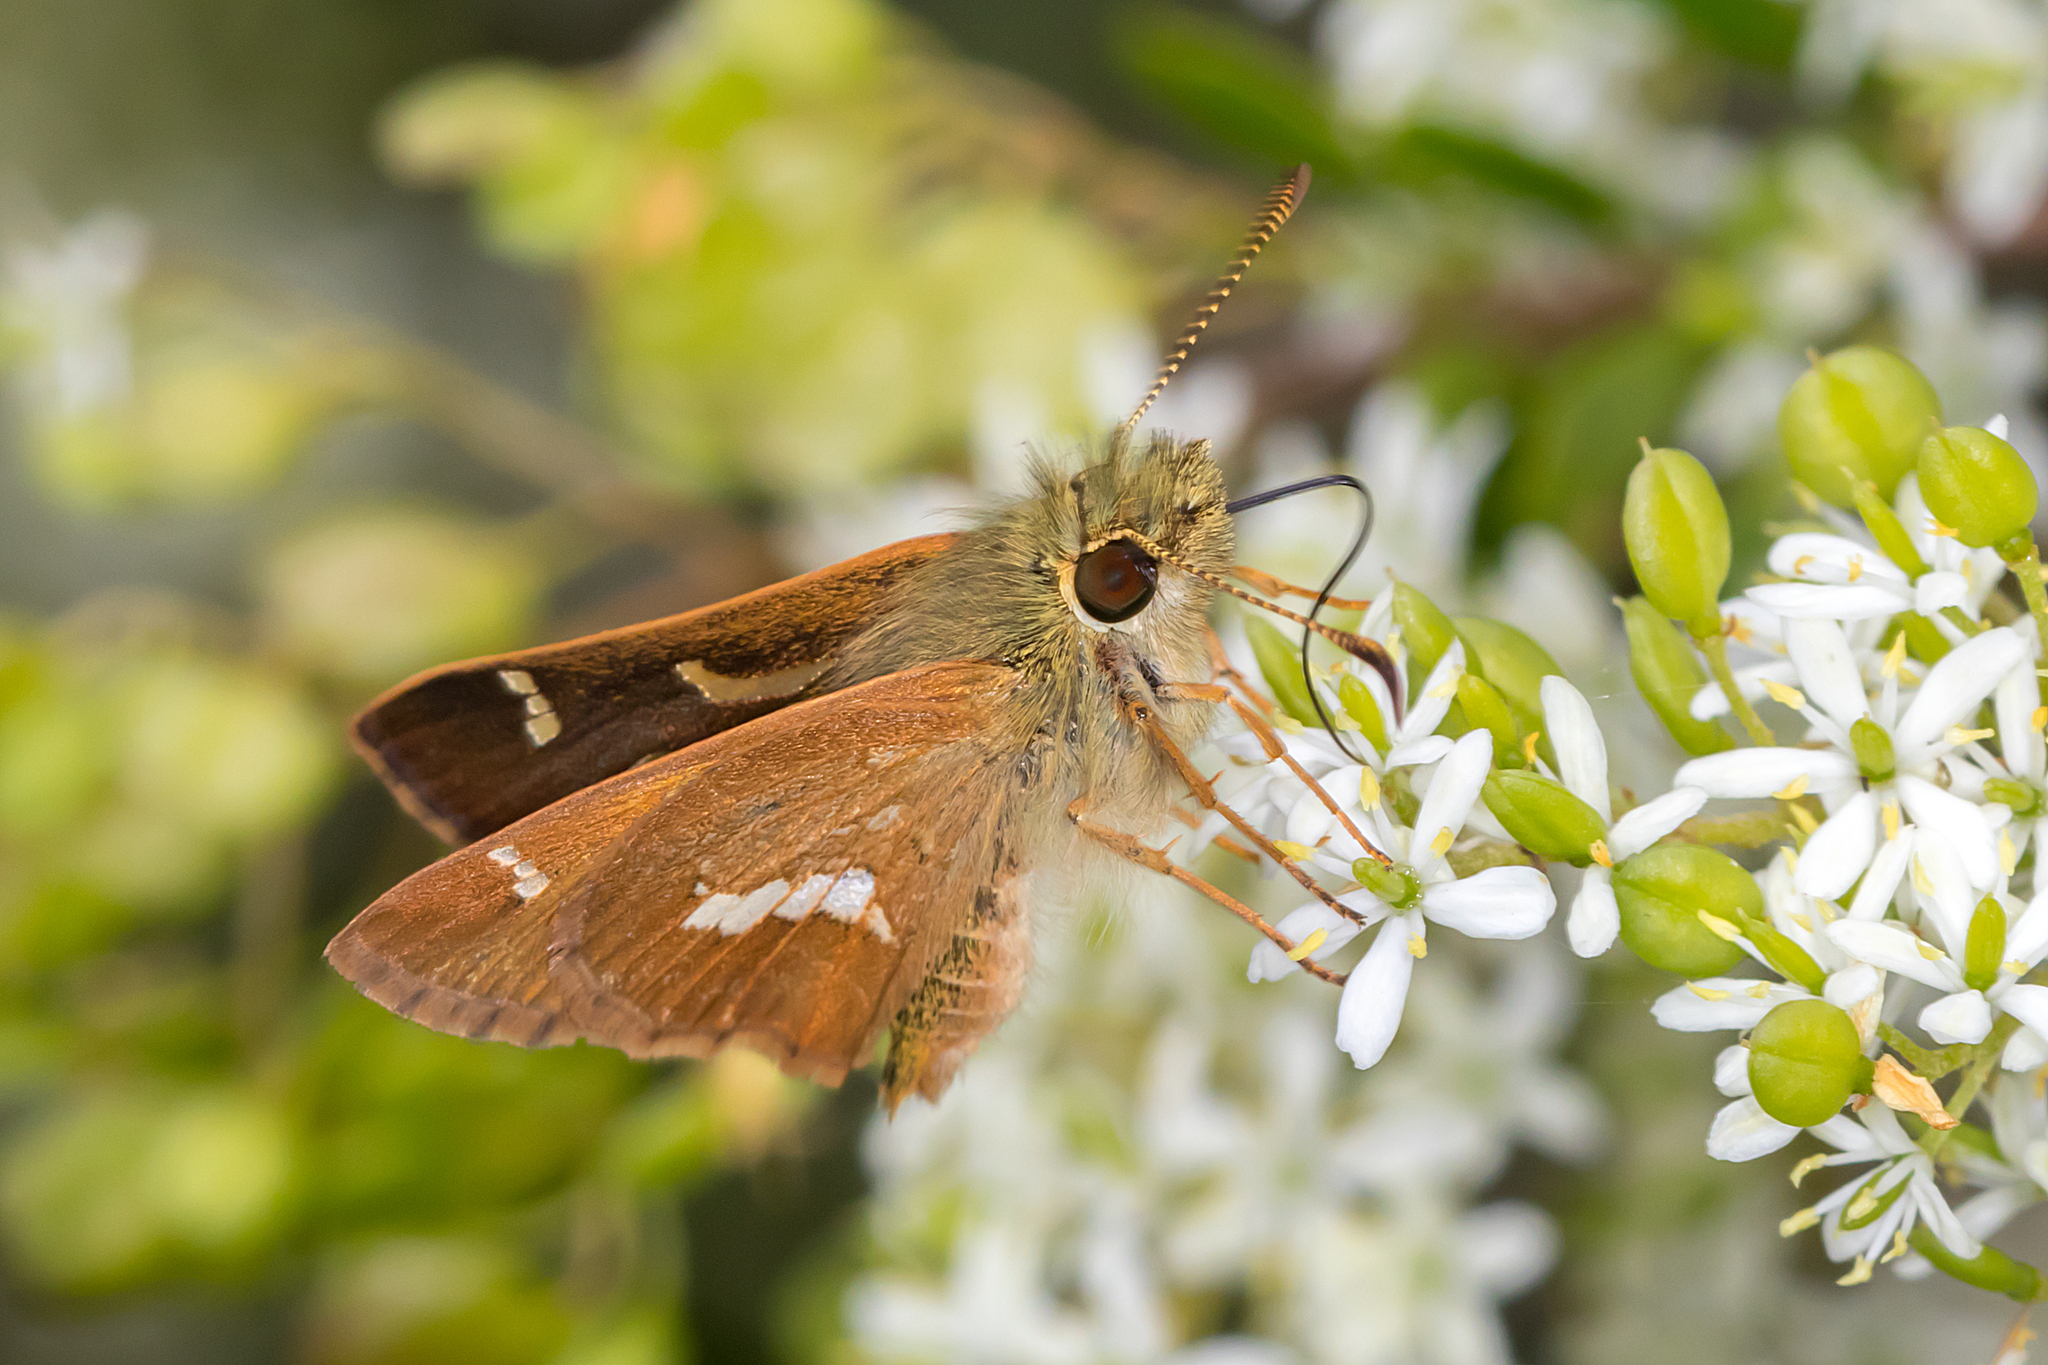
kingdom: Animalia
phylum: Arthropoda
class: Insecta
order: Lepidoptera
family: Hesperiidae
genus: Dispar
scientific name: Dispar compacta
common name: Barred skipper
